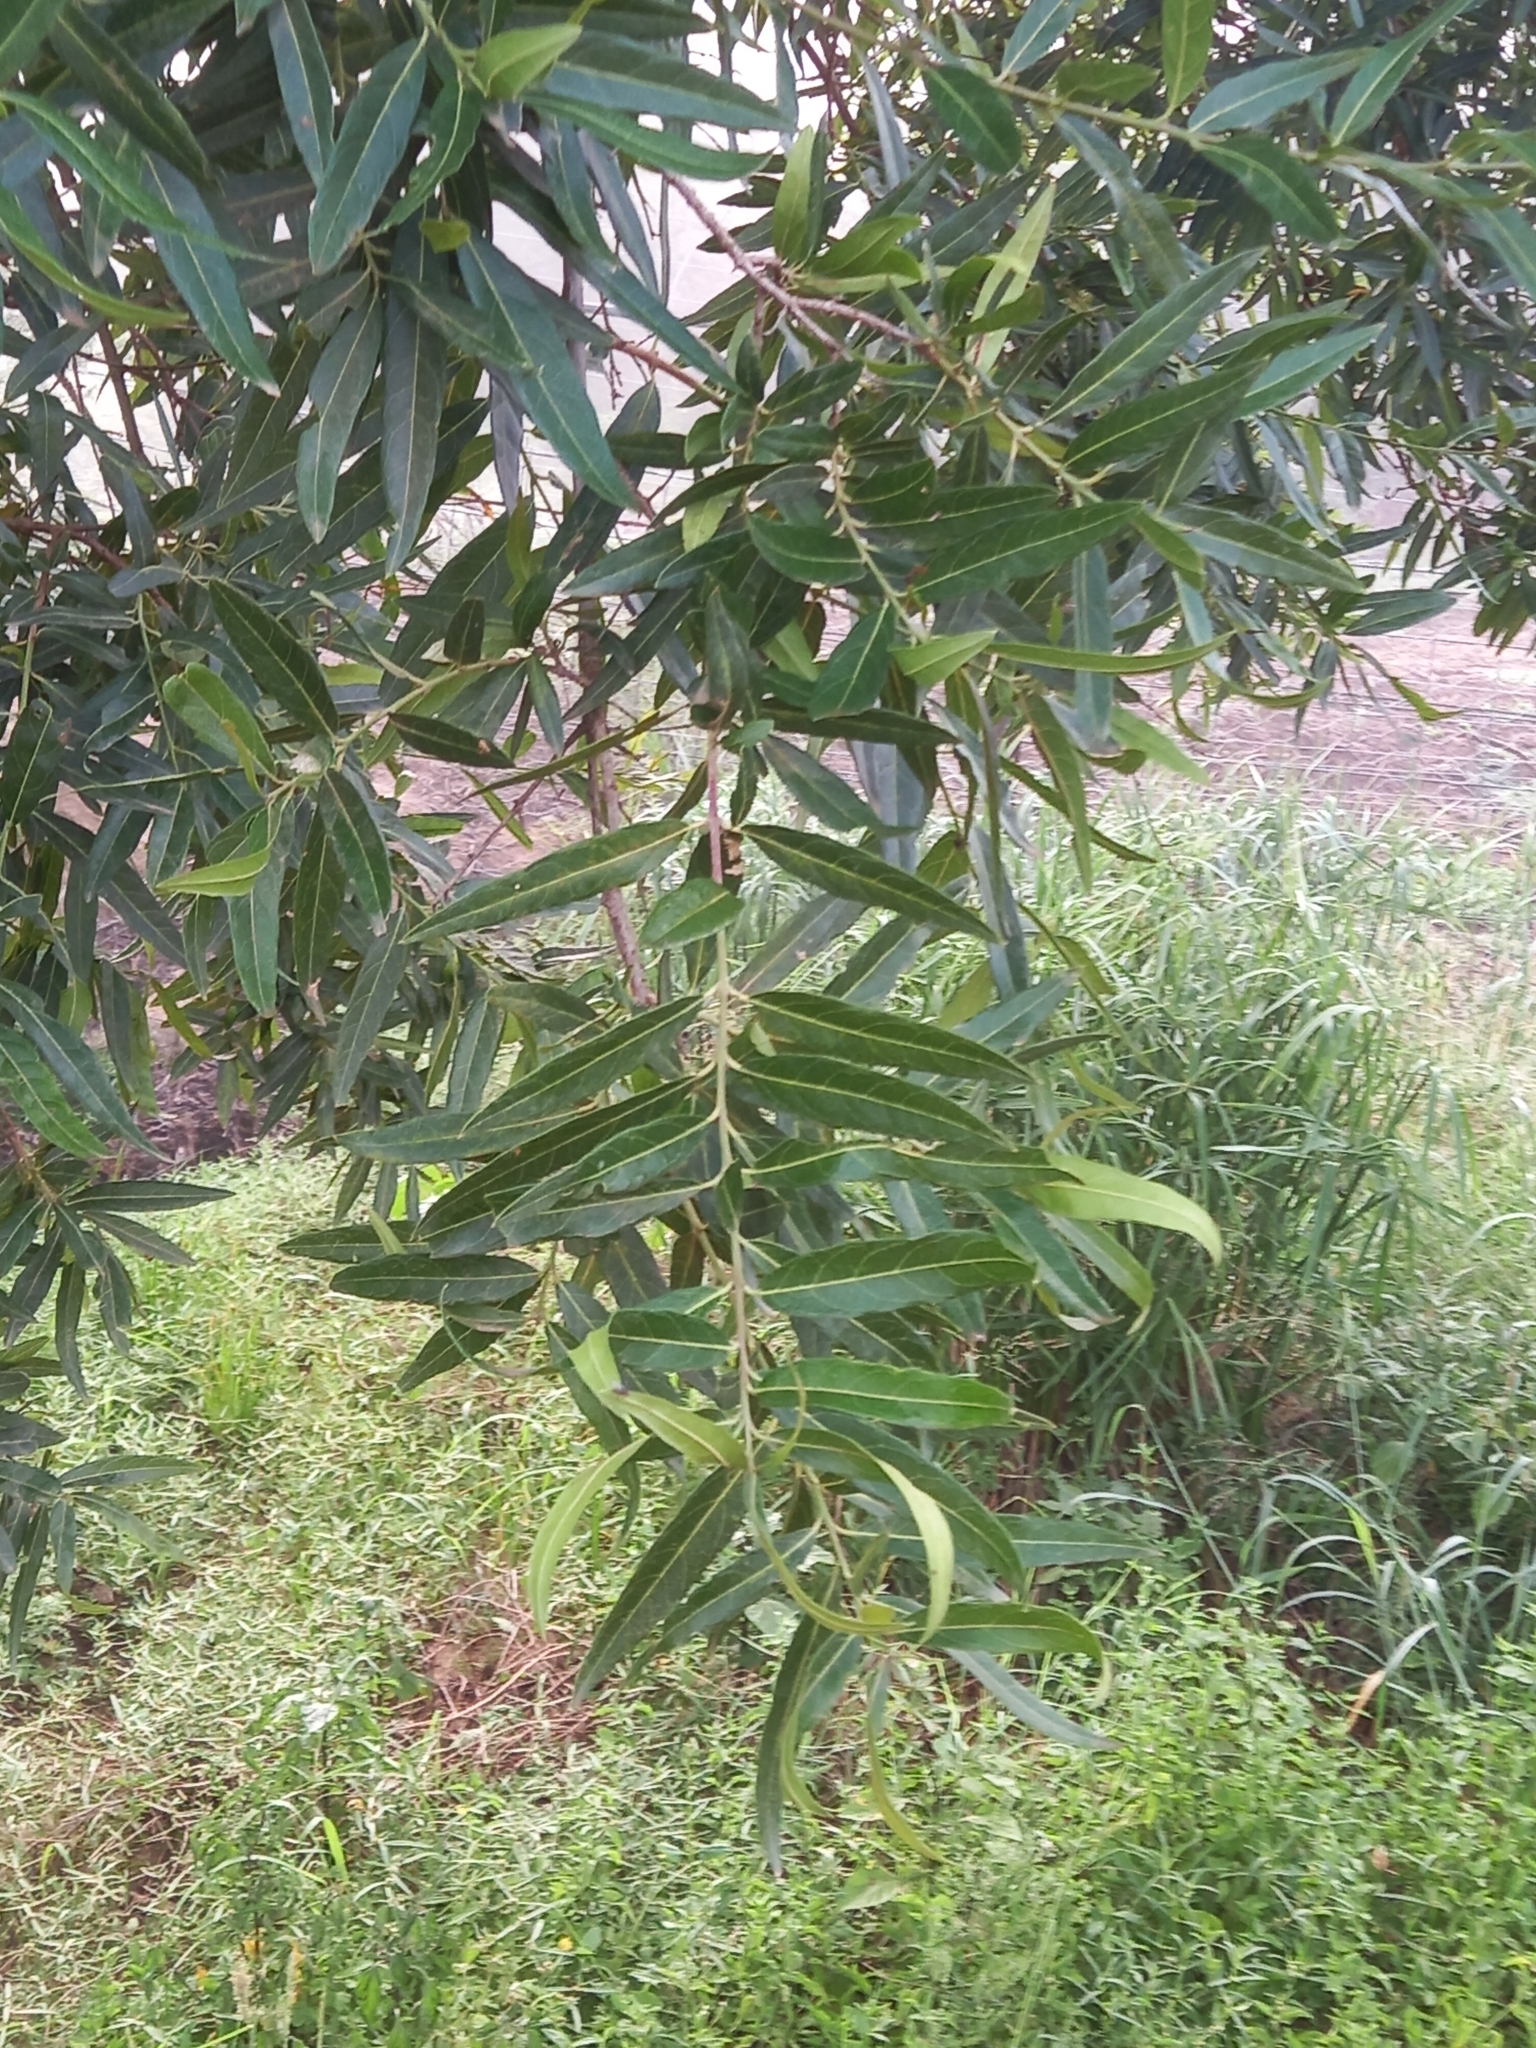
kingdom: Plantae
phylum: Tracheophyta
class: Magnoliopsida
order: Myrtales
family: Combretaceae
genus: Combretum
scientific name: Combretum caffrum
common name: Cape bushwillow
